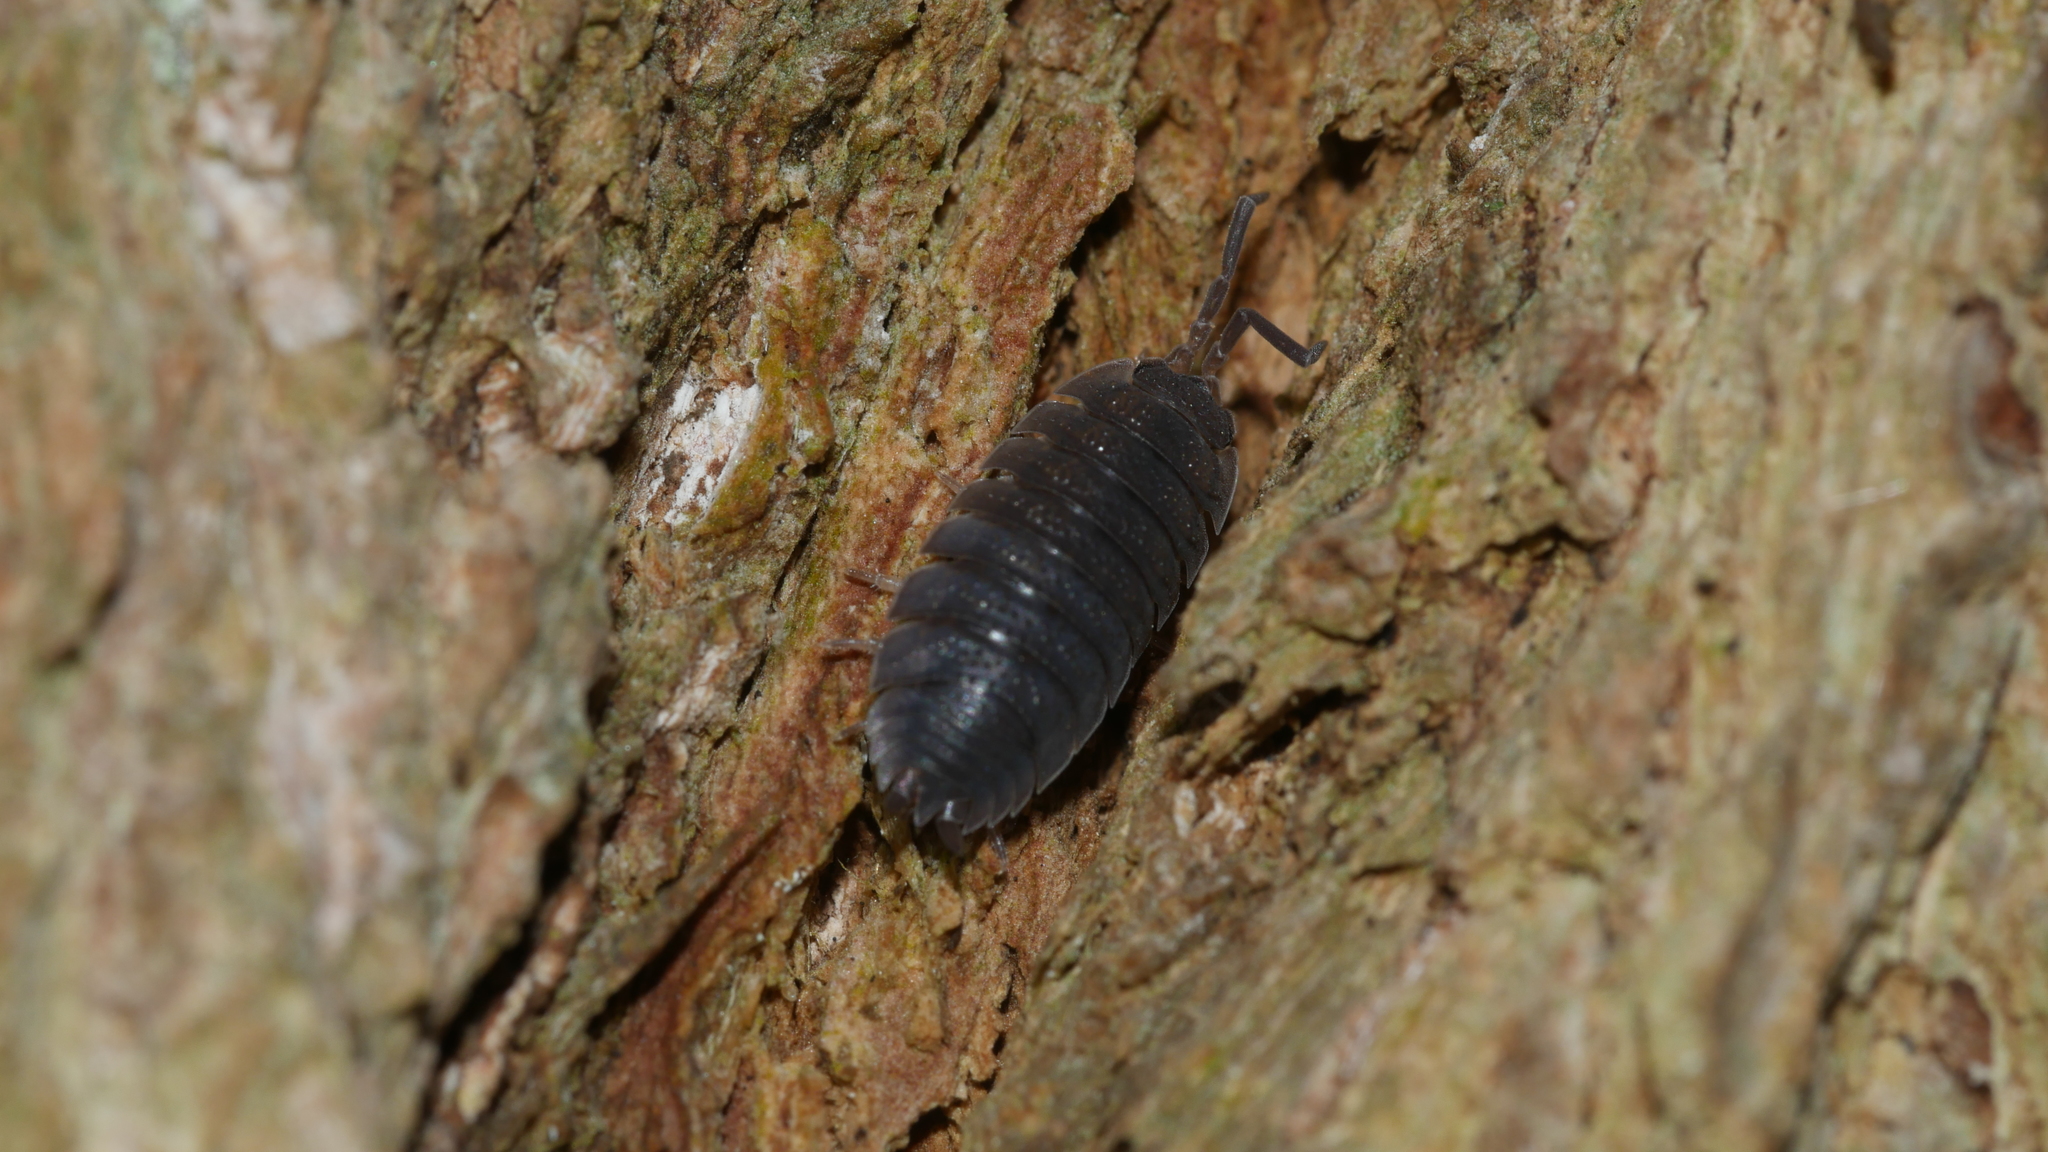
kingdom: Animalia
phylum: Arthropoda
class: Malacostraca
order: Isopoda
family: Porcellionidae
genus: Porcellio
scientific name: Porcellio scaber
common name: Common rough woodlouse
